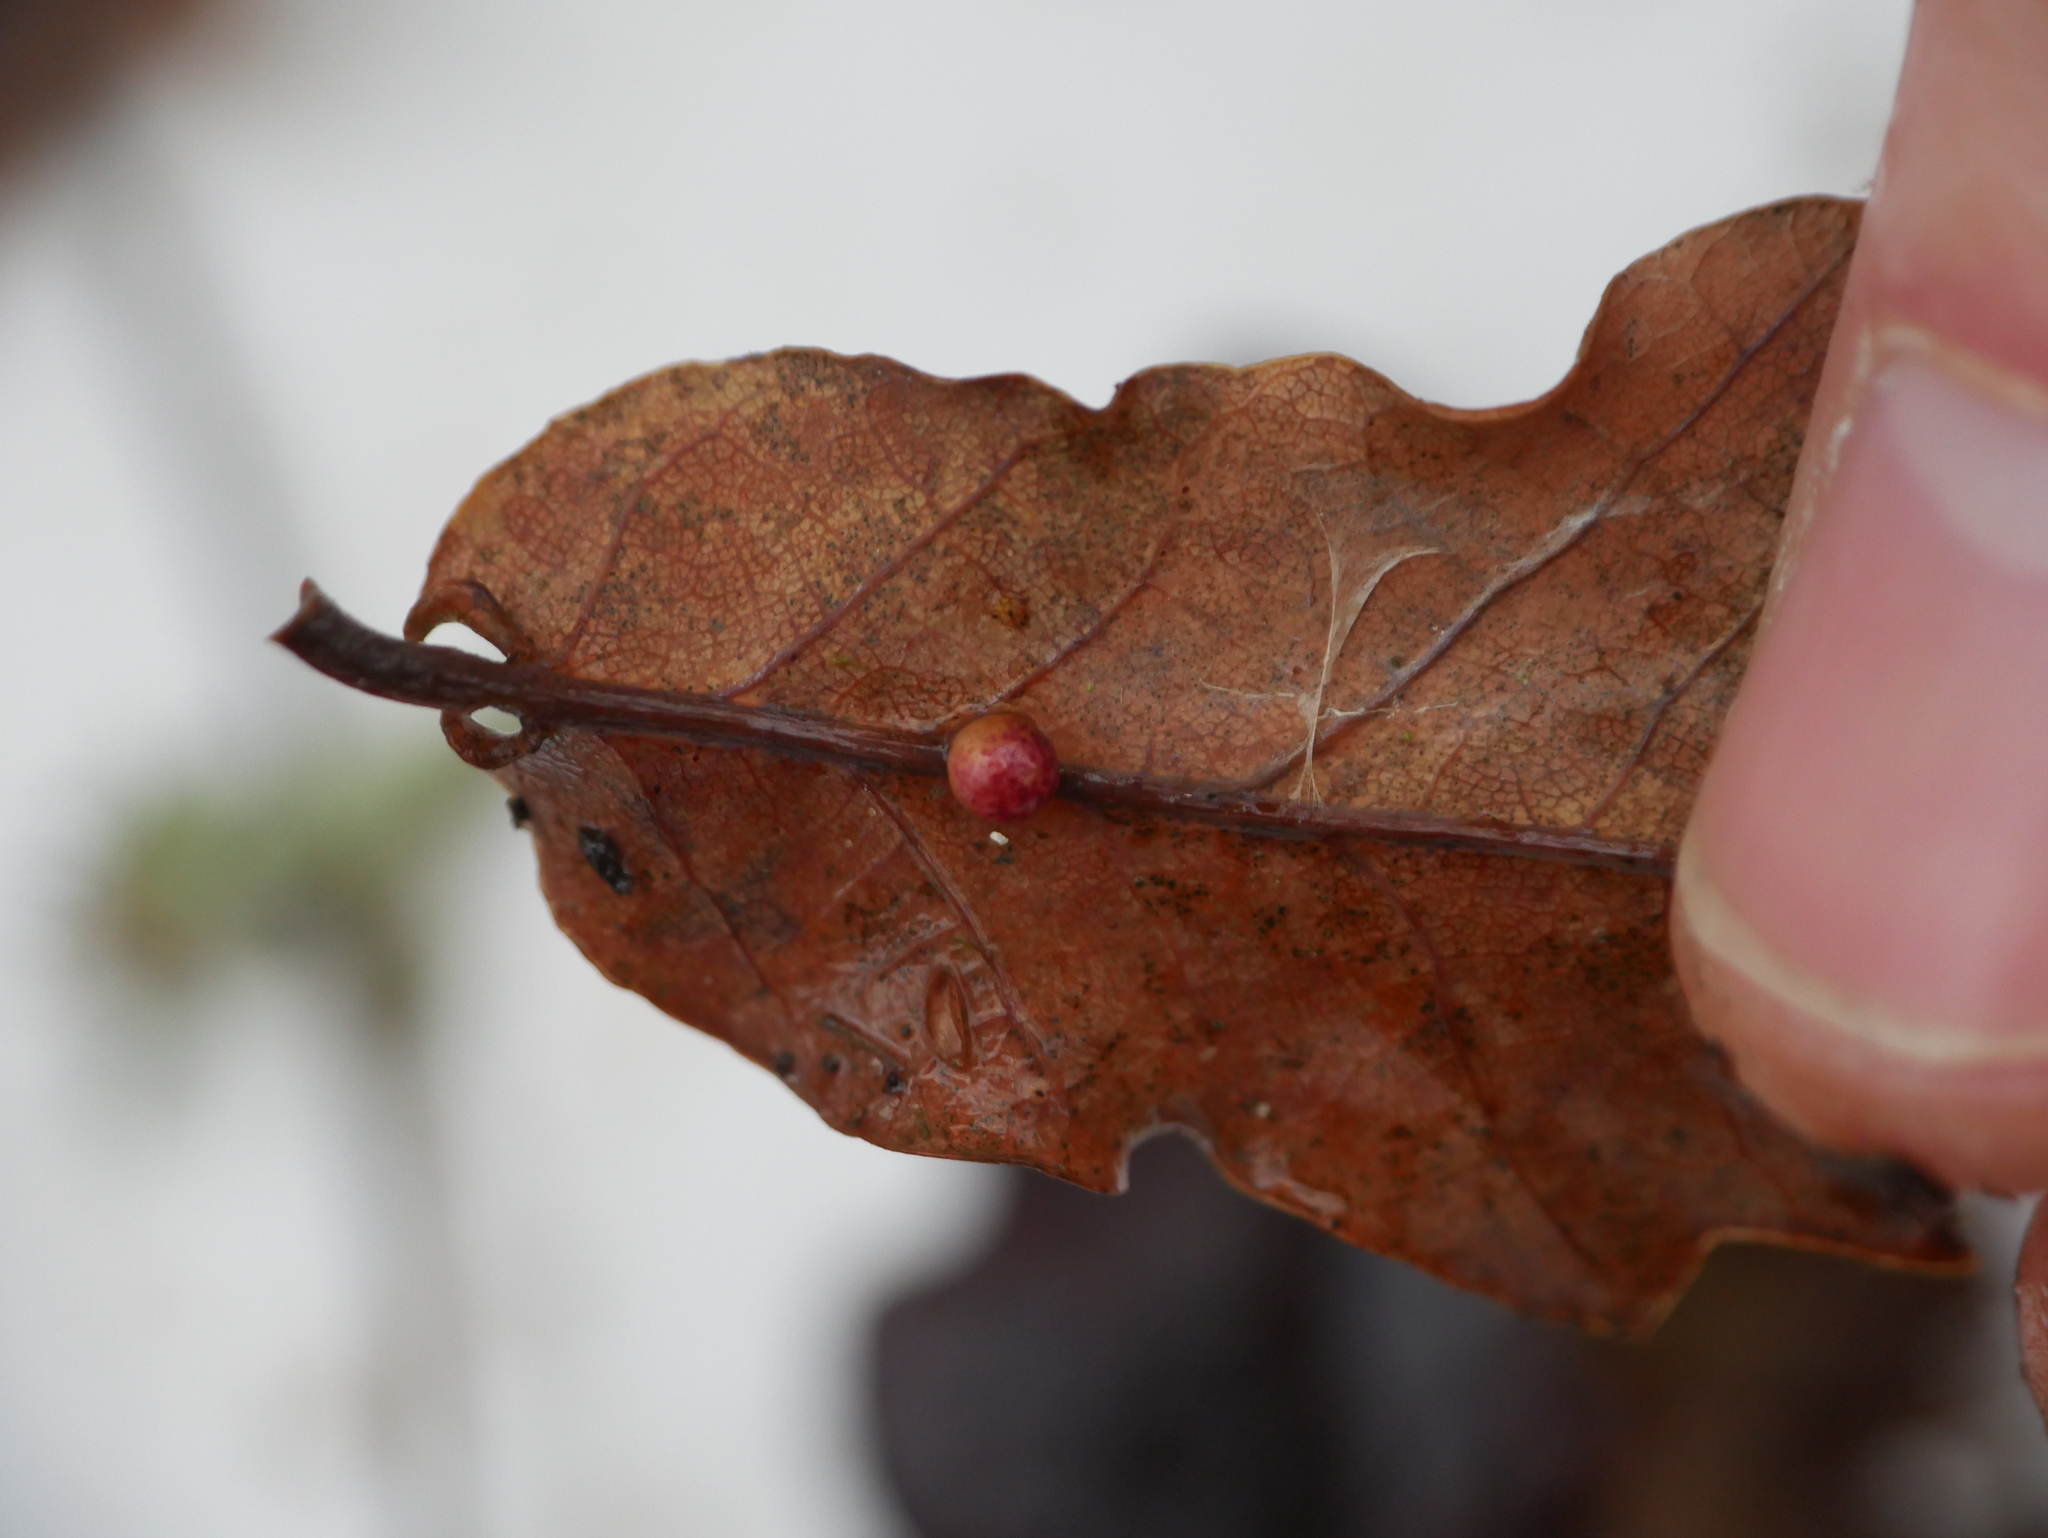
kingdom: Animalia
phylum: Arthropoda
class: Insecta
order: Hymenoptera
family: Cynipidae
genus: Neuroterus
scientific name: Neuroterus anthracinus
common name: Oyster gall
